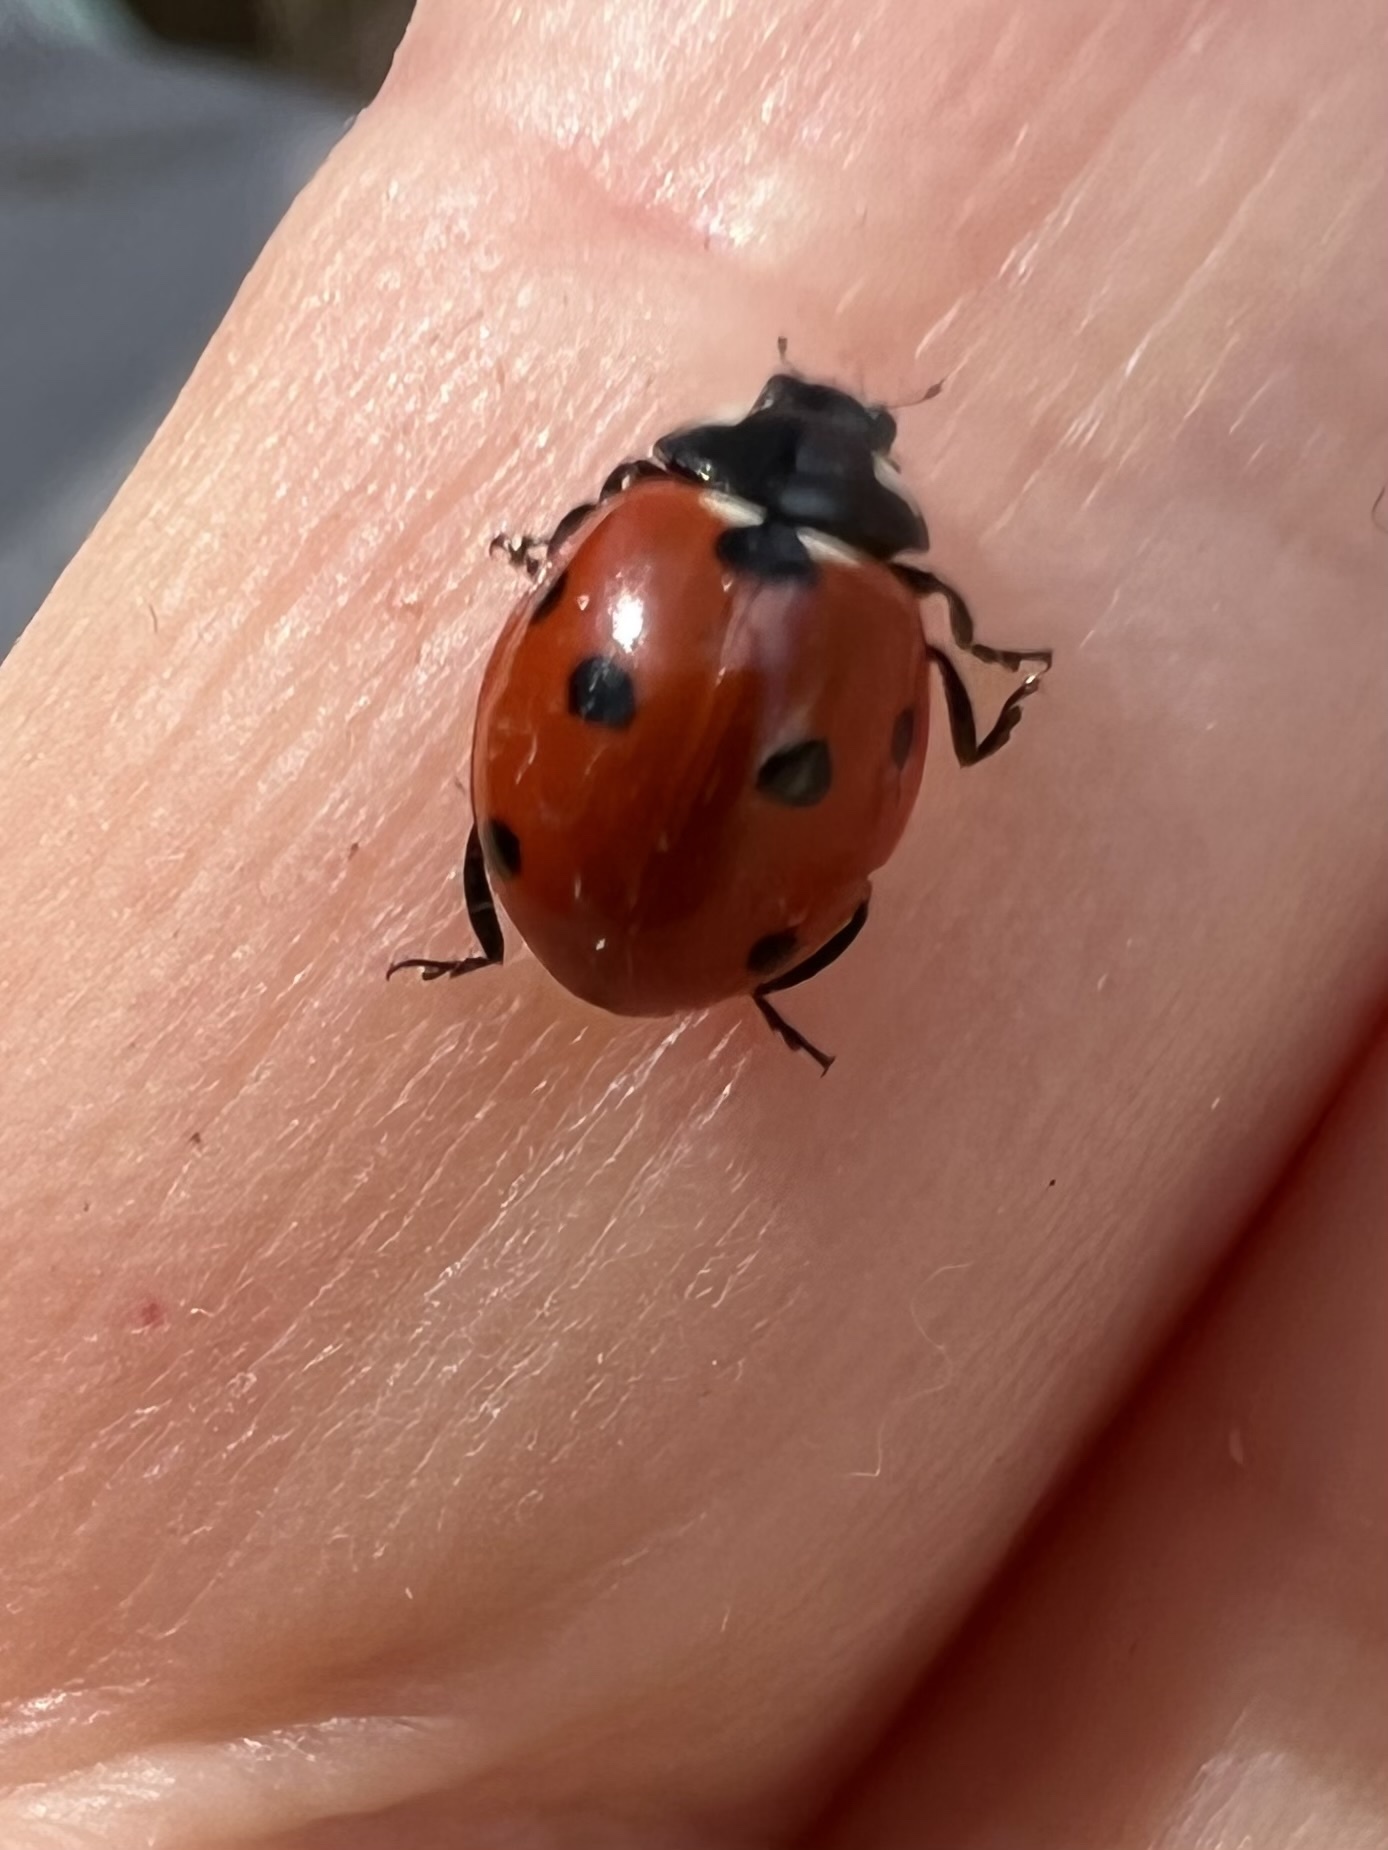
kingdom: Animalia
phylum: Arthropoda
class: Insecta
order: Coleoptera
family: Coccinellidae
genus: Coccinella
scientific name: Coccinella septempunctata
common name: Sevenspotted lady beetle
